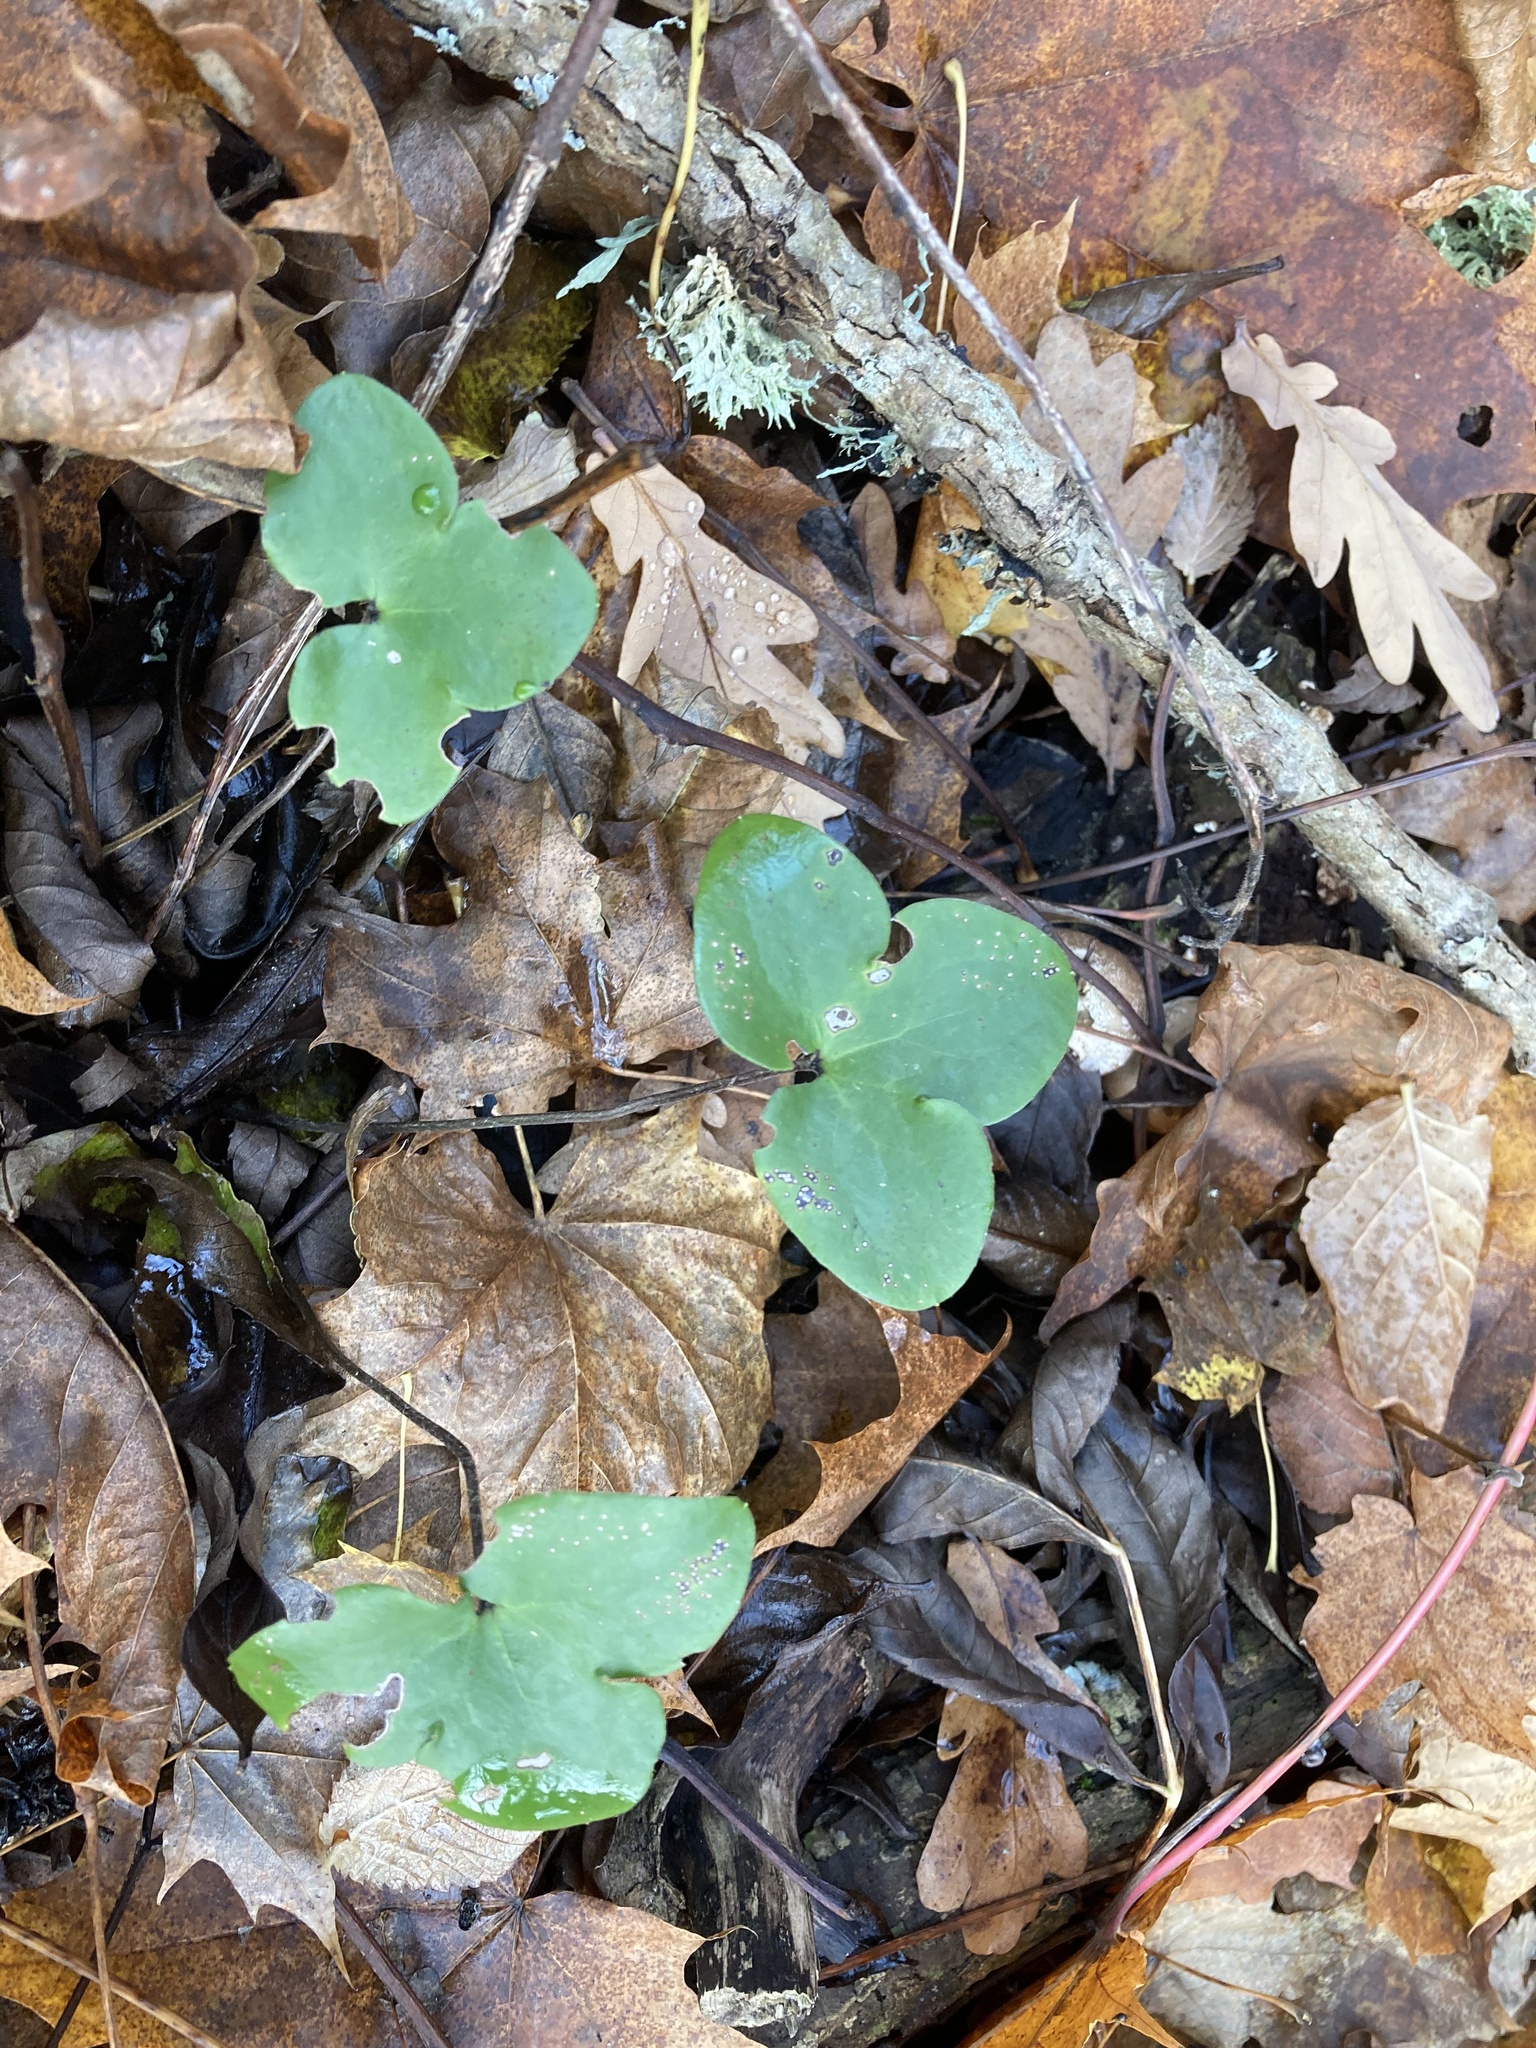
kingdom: Plantae
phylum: Tracheophyta
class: Magnoliopsida
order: Ranunculales
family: Ranunculaceae
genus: Hepatica
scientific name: Hepatica nobilis
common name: Liverleaf
